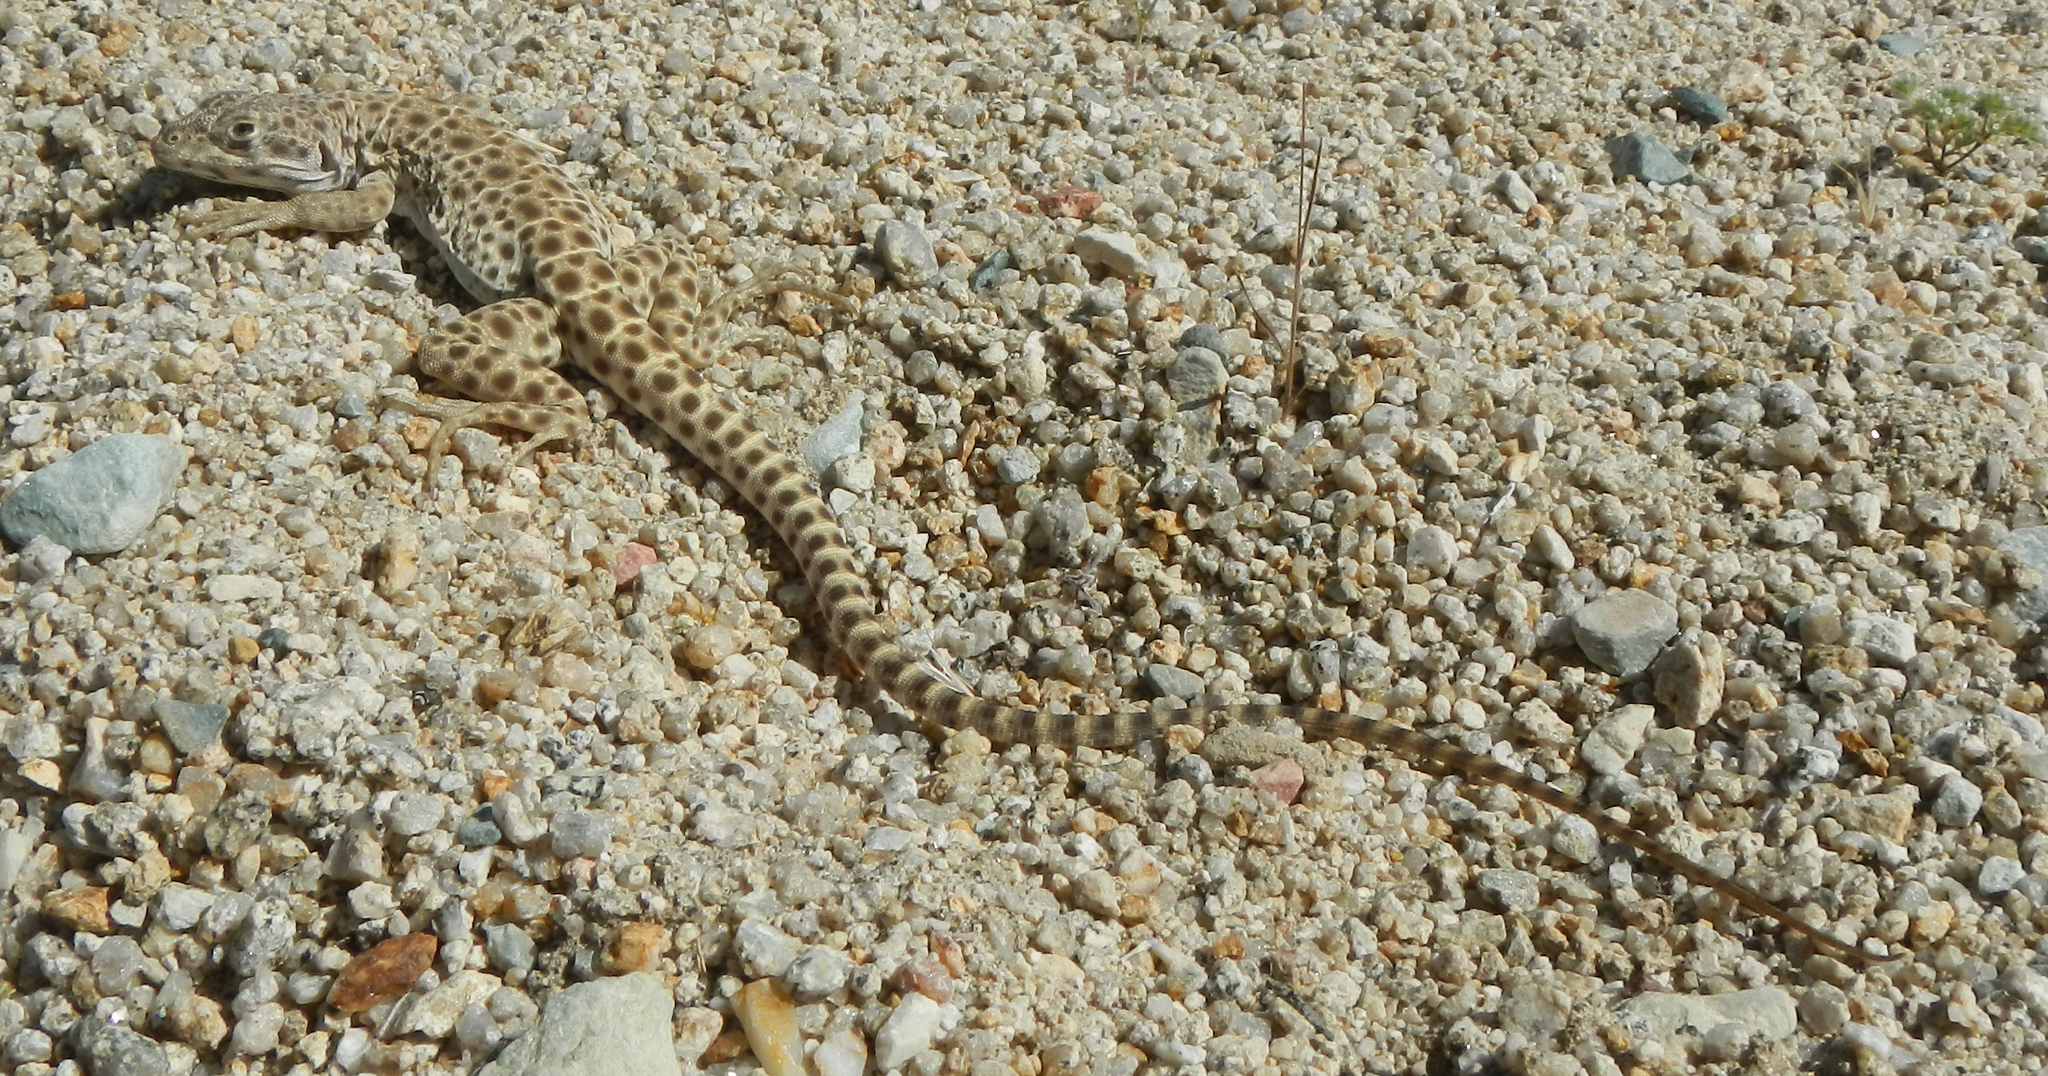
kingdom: Animalia
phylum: Chordata
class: Squamata
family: Crotaphytidae
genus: Gambelia
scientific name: Gambelia wislizenii
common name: Longnose leopard lizard
